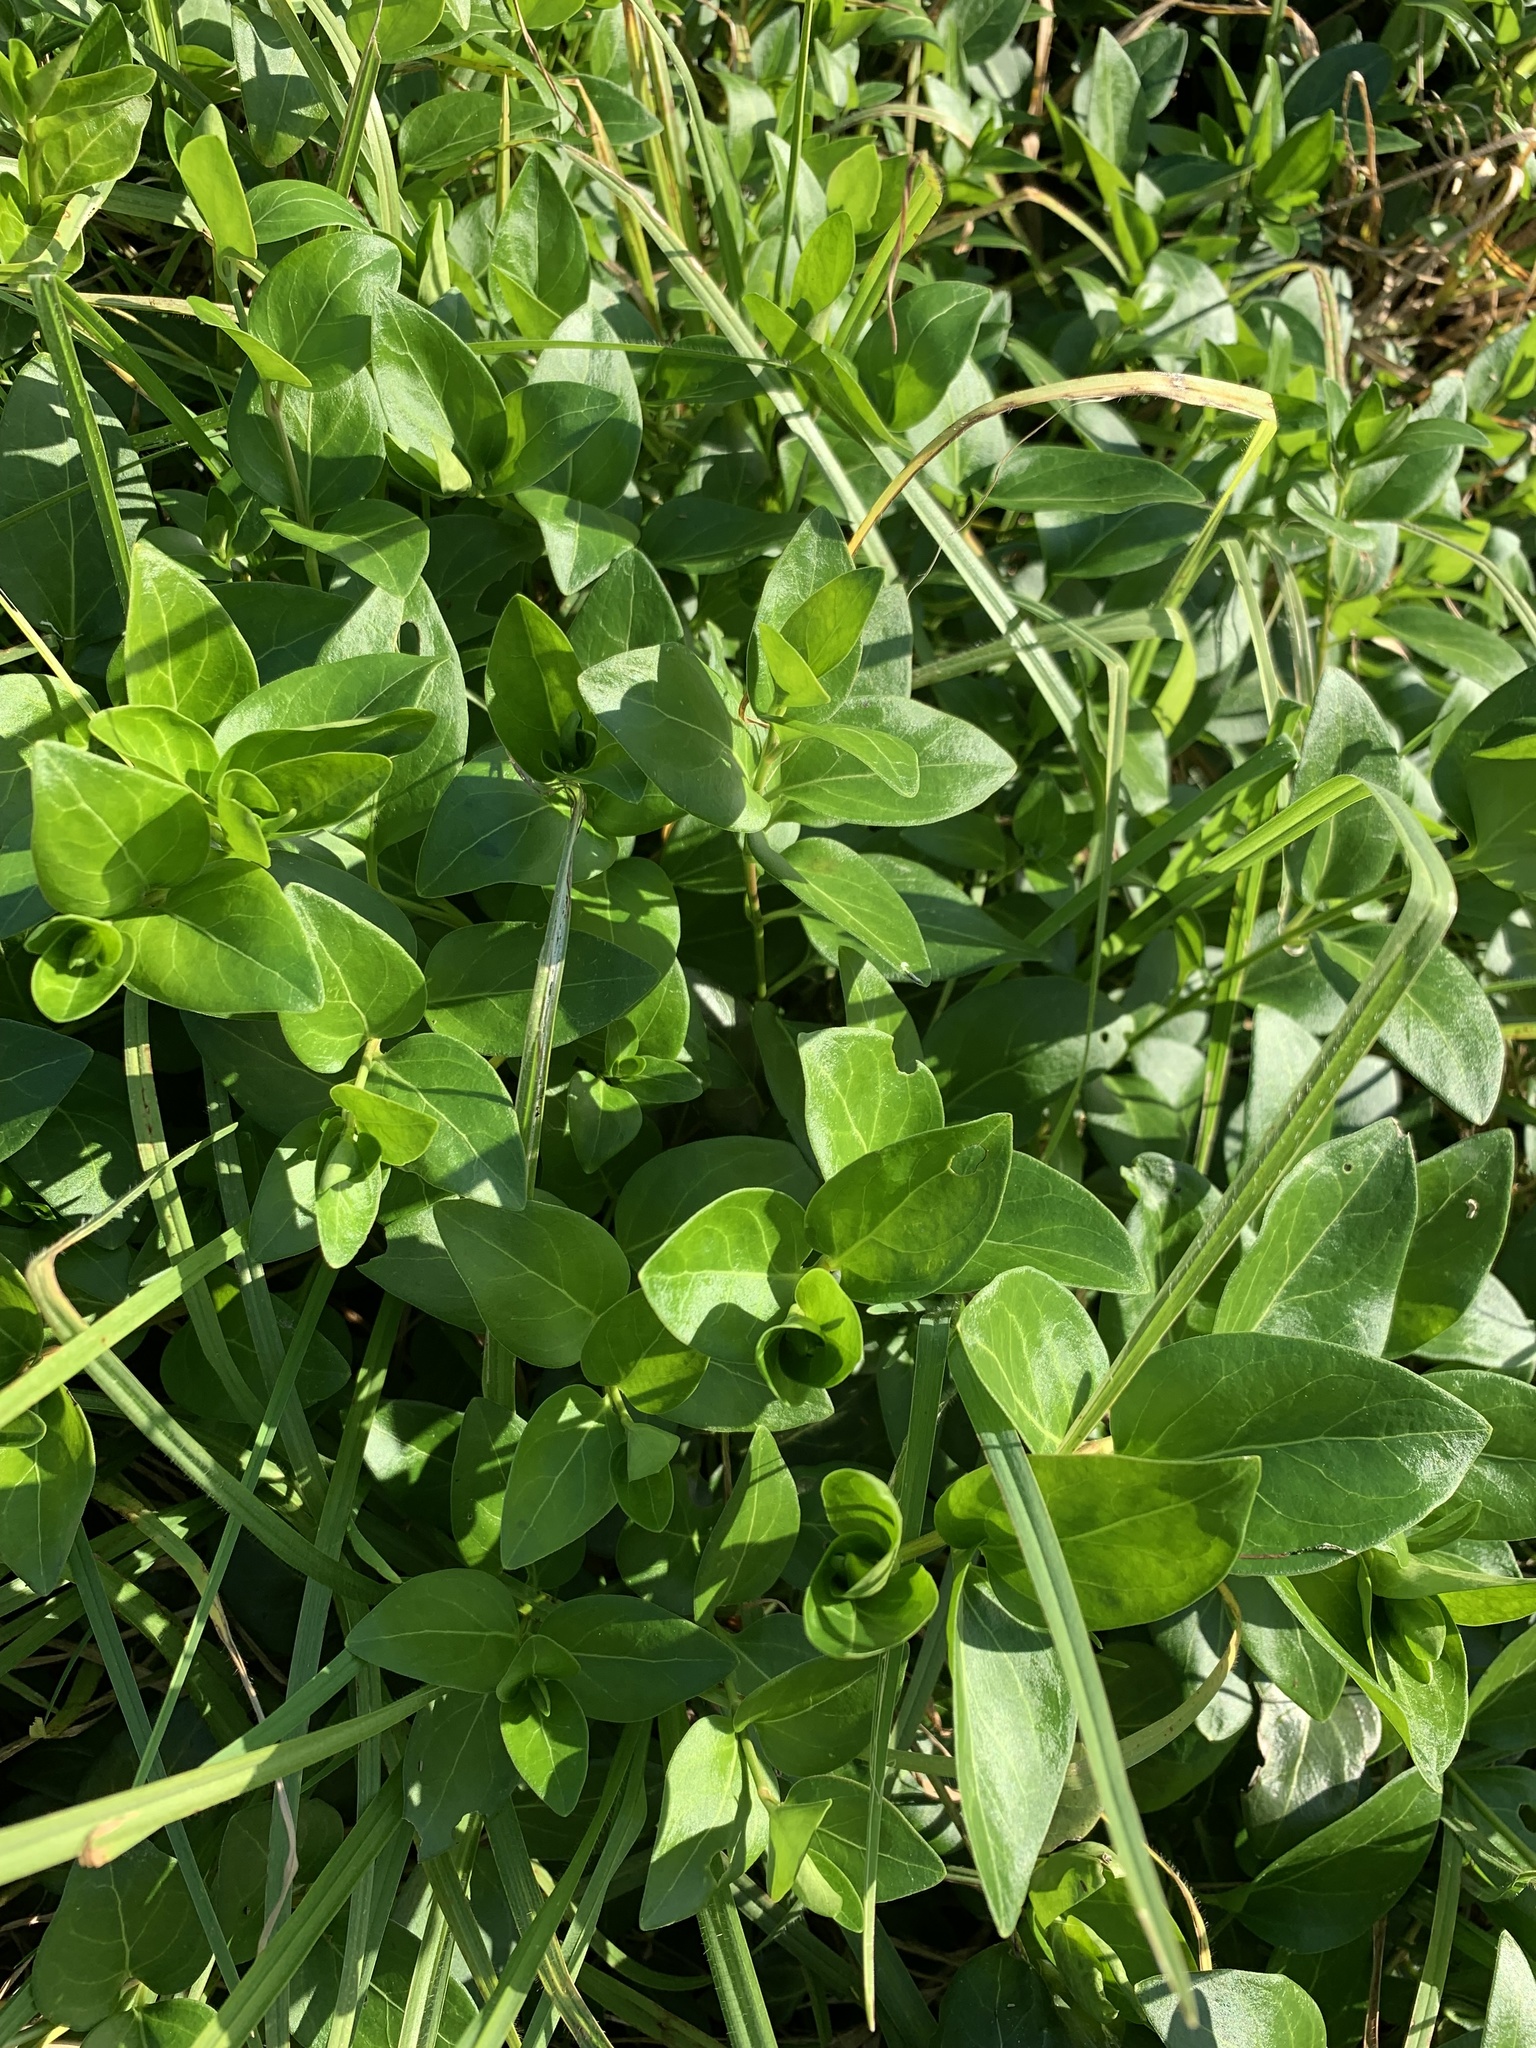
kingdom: Plantae
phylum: Tracheophyta
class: Magnoliopsida
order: Gentianales
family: Apocynaceae
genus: Vinca
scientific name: Vinca major
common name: Greater periwinkle
